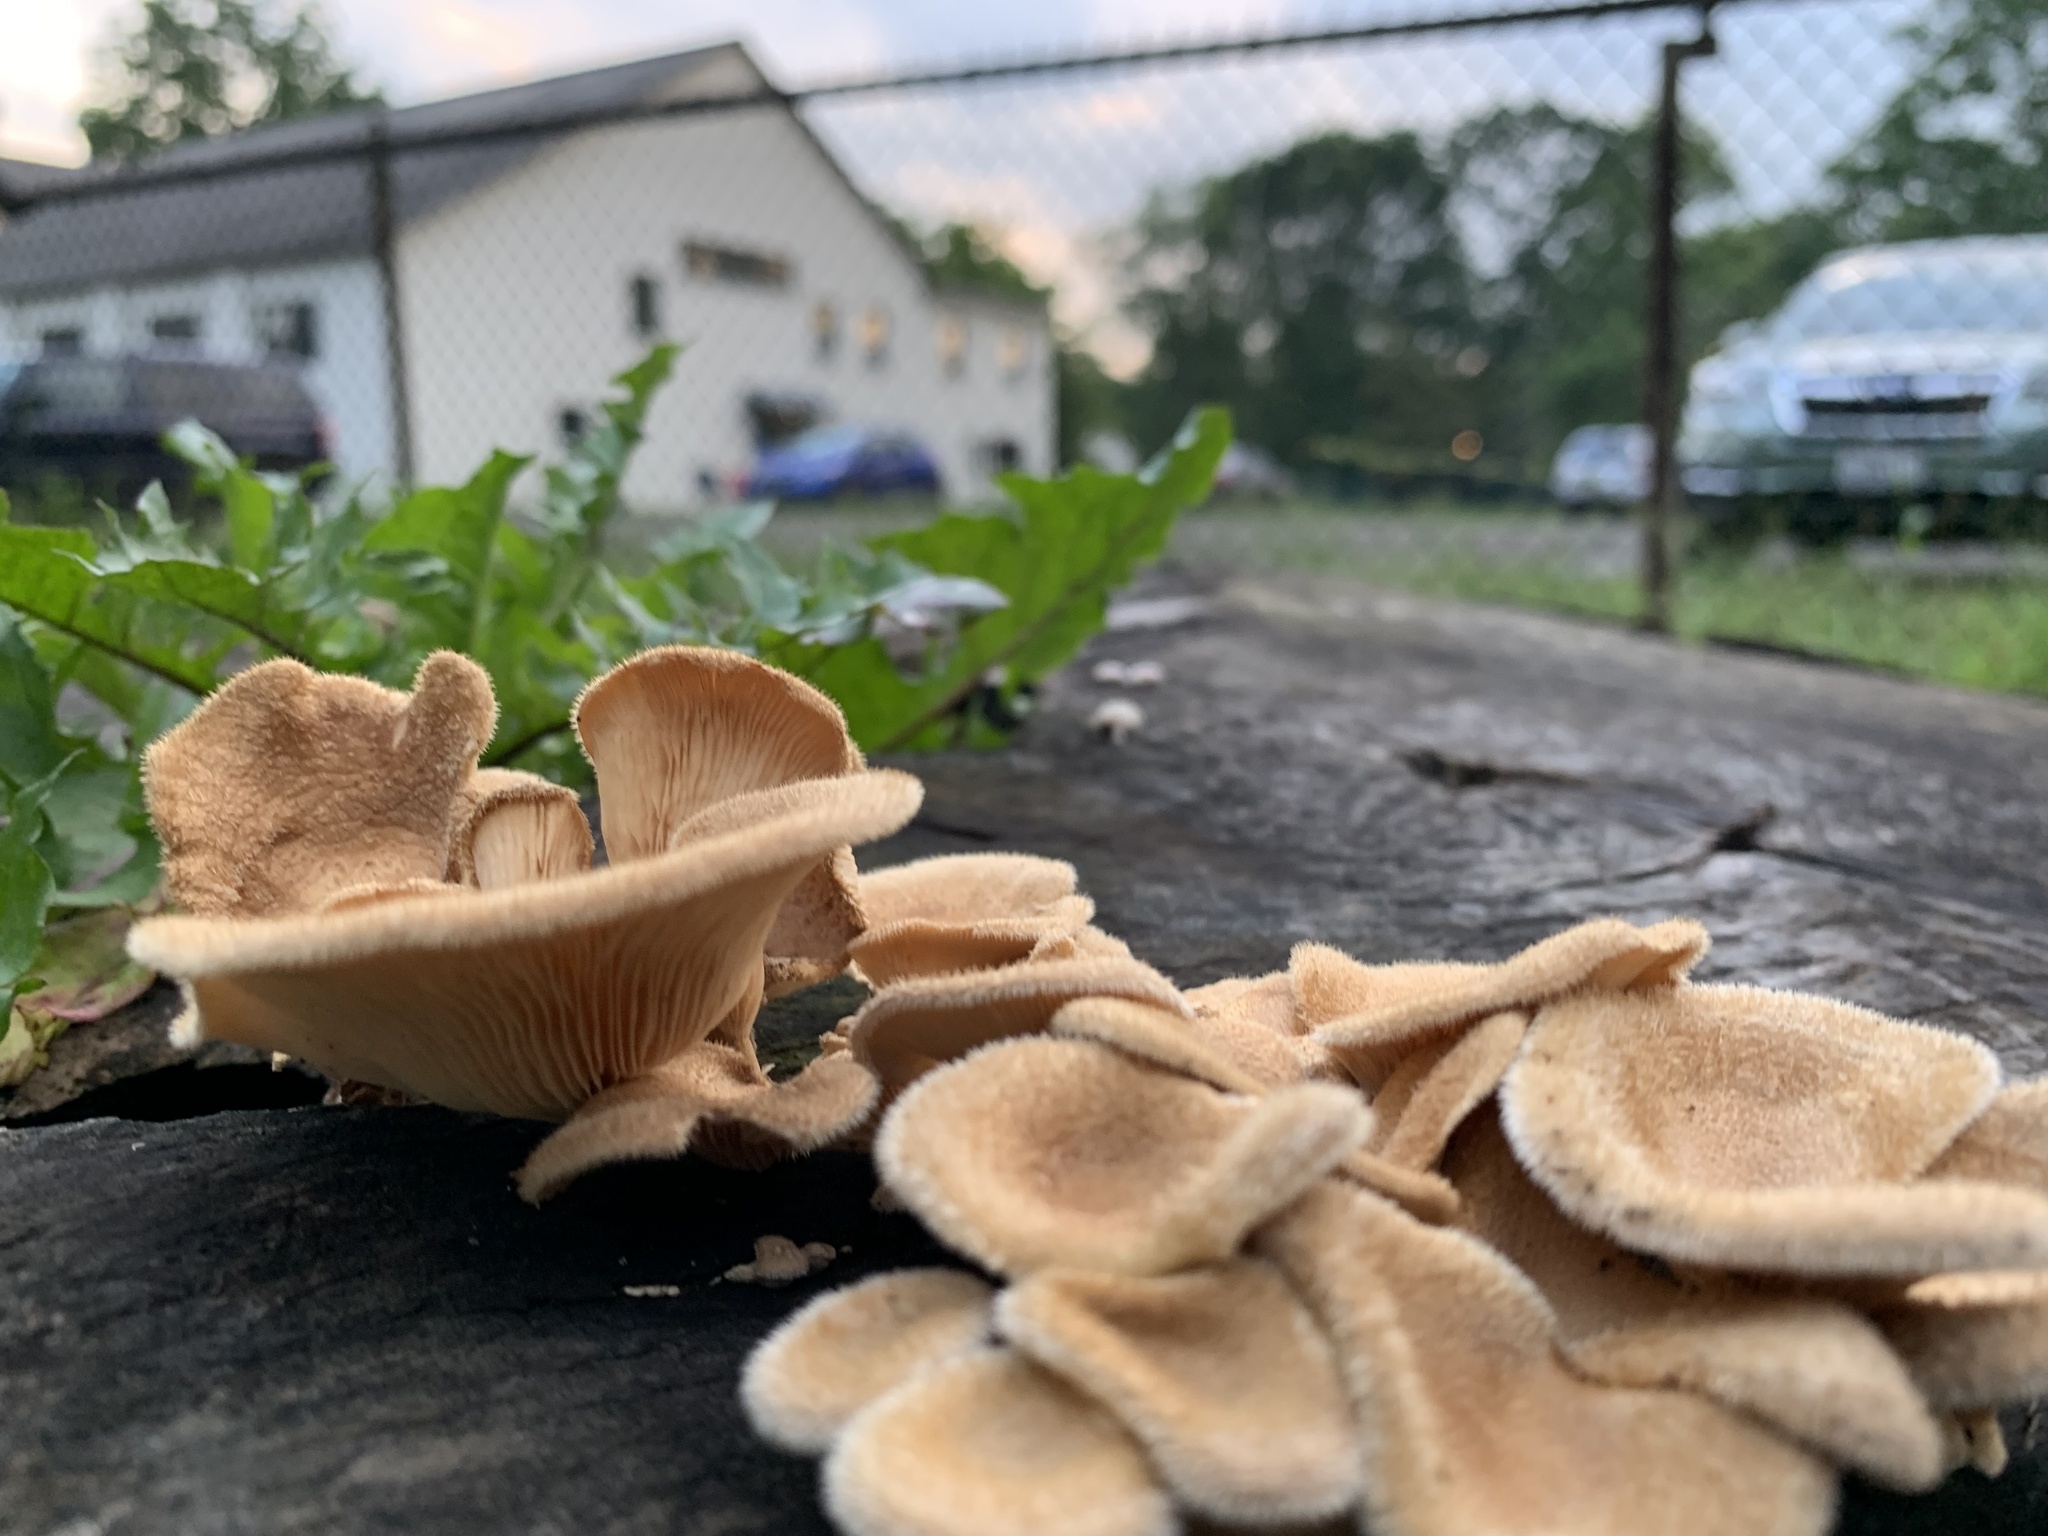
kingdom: Fungi
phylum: Basidiomycota
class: Agaricomycetes
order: Polyporales
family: Panaceae
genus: Panus
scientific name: Panus neostrigosus
